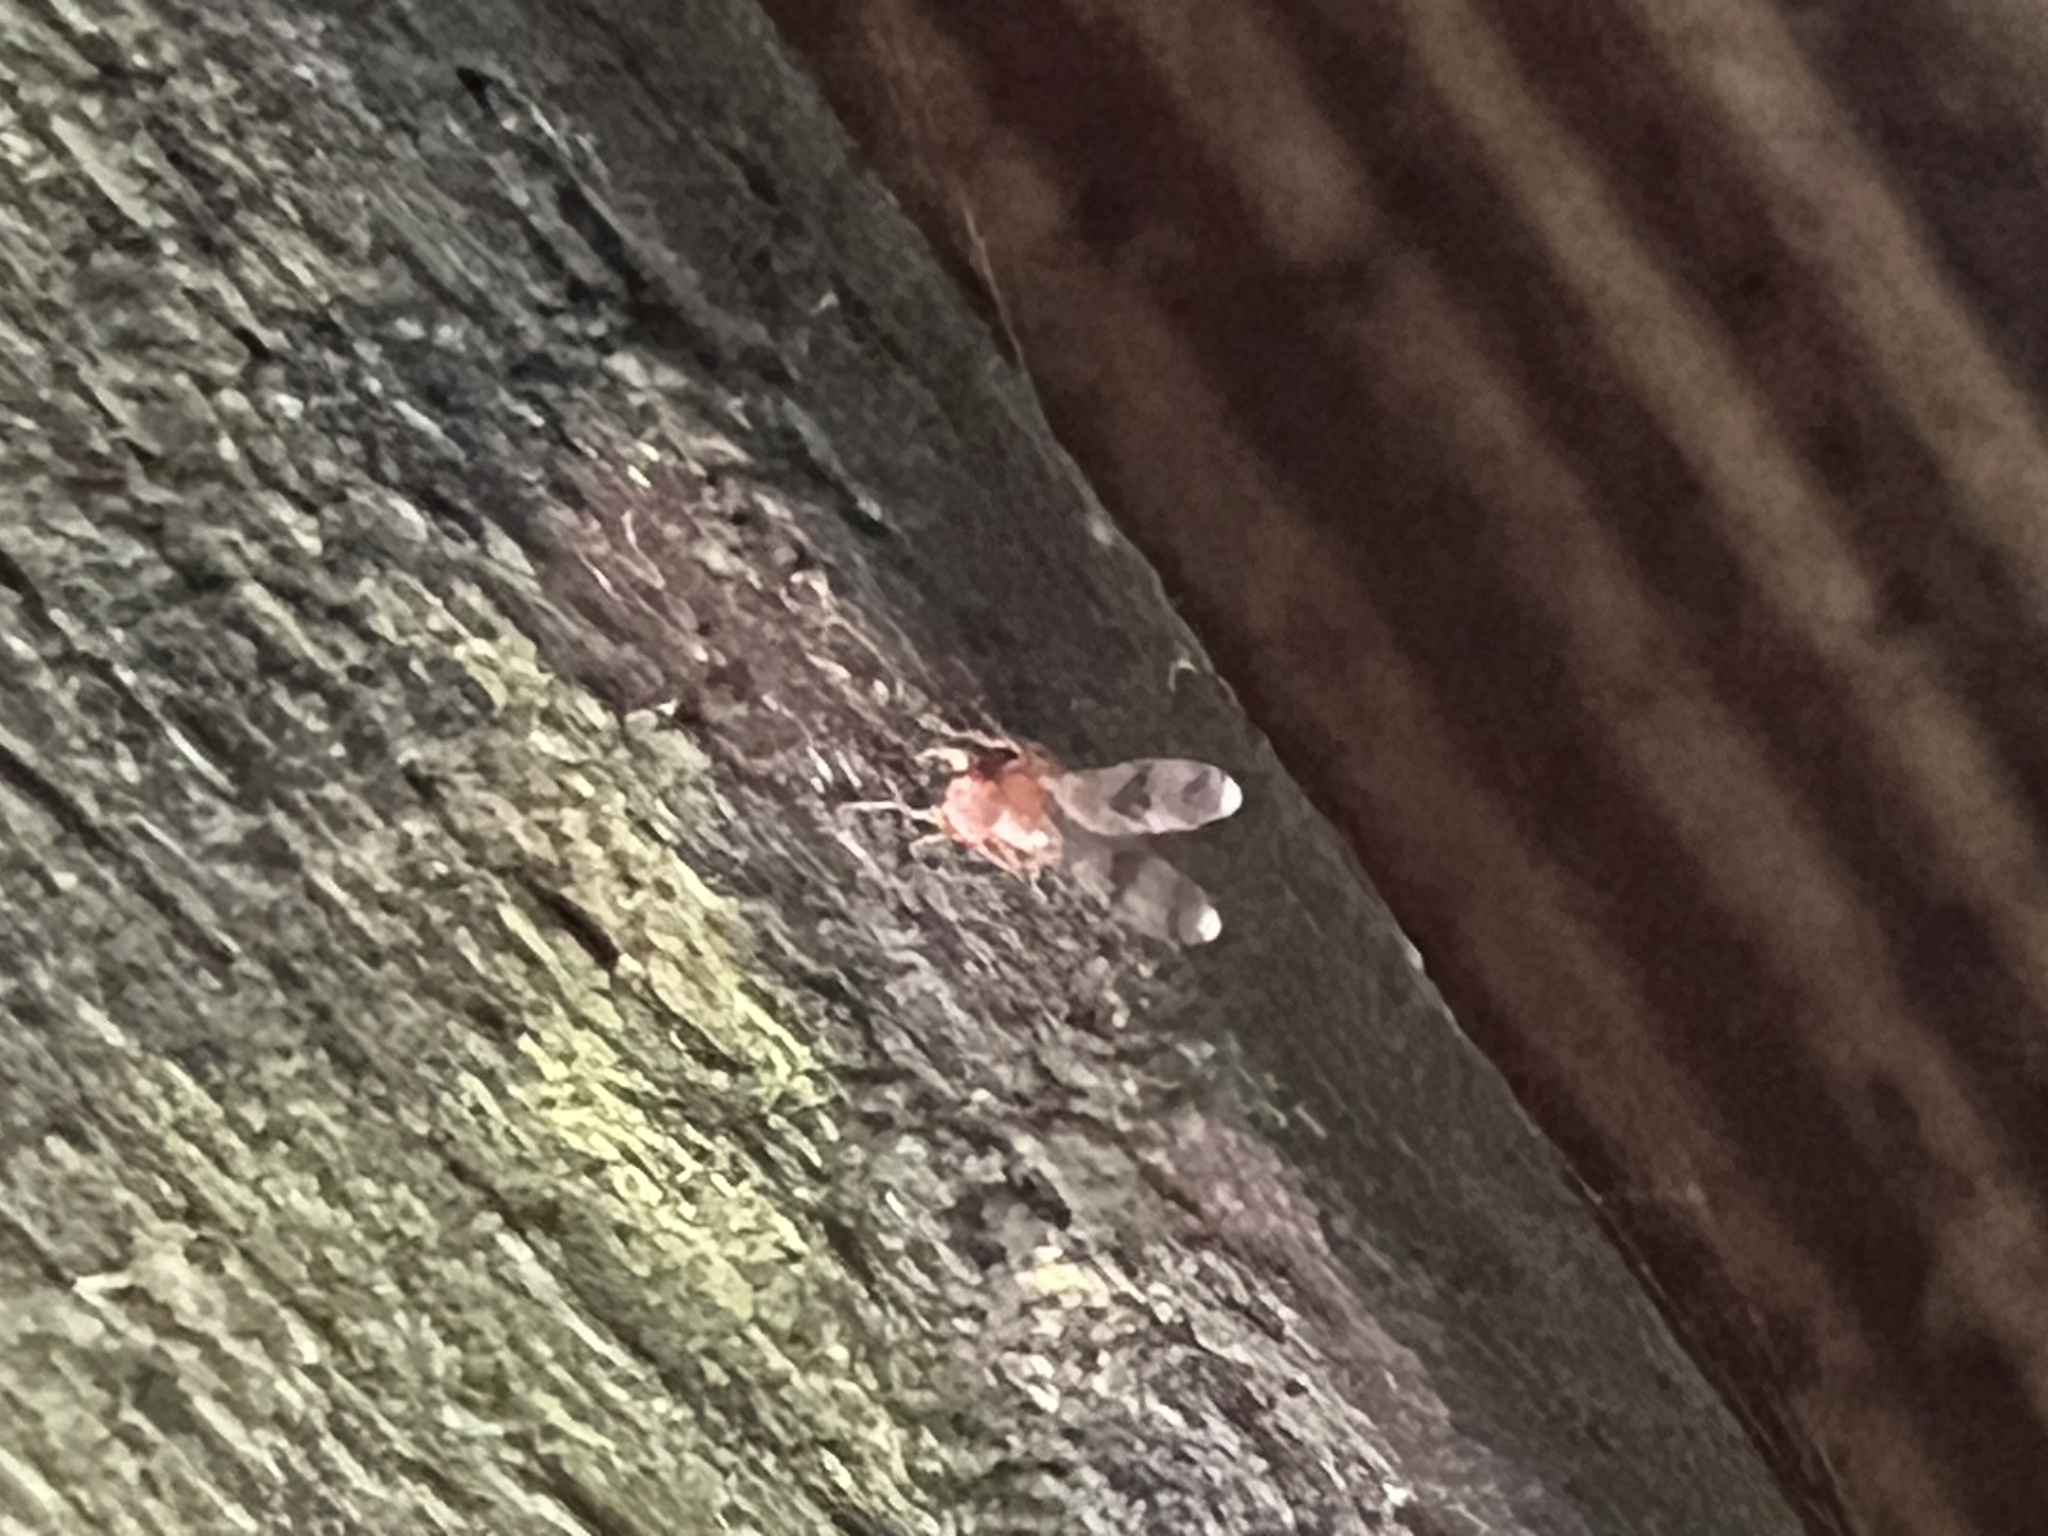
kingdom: Animalia
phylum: Arthropoda
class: Insecta
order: Diptera
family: Drosophilidae
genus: Chymomyza
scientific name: Chymomyza amoena
